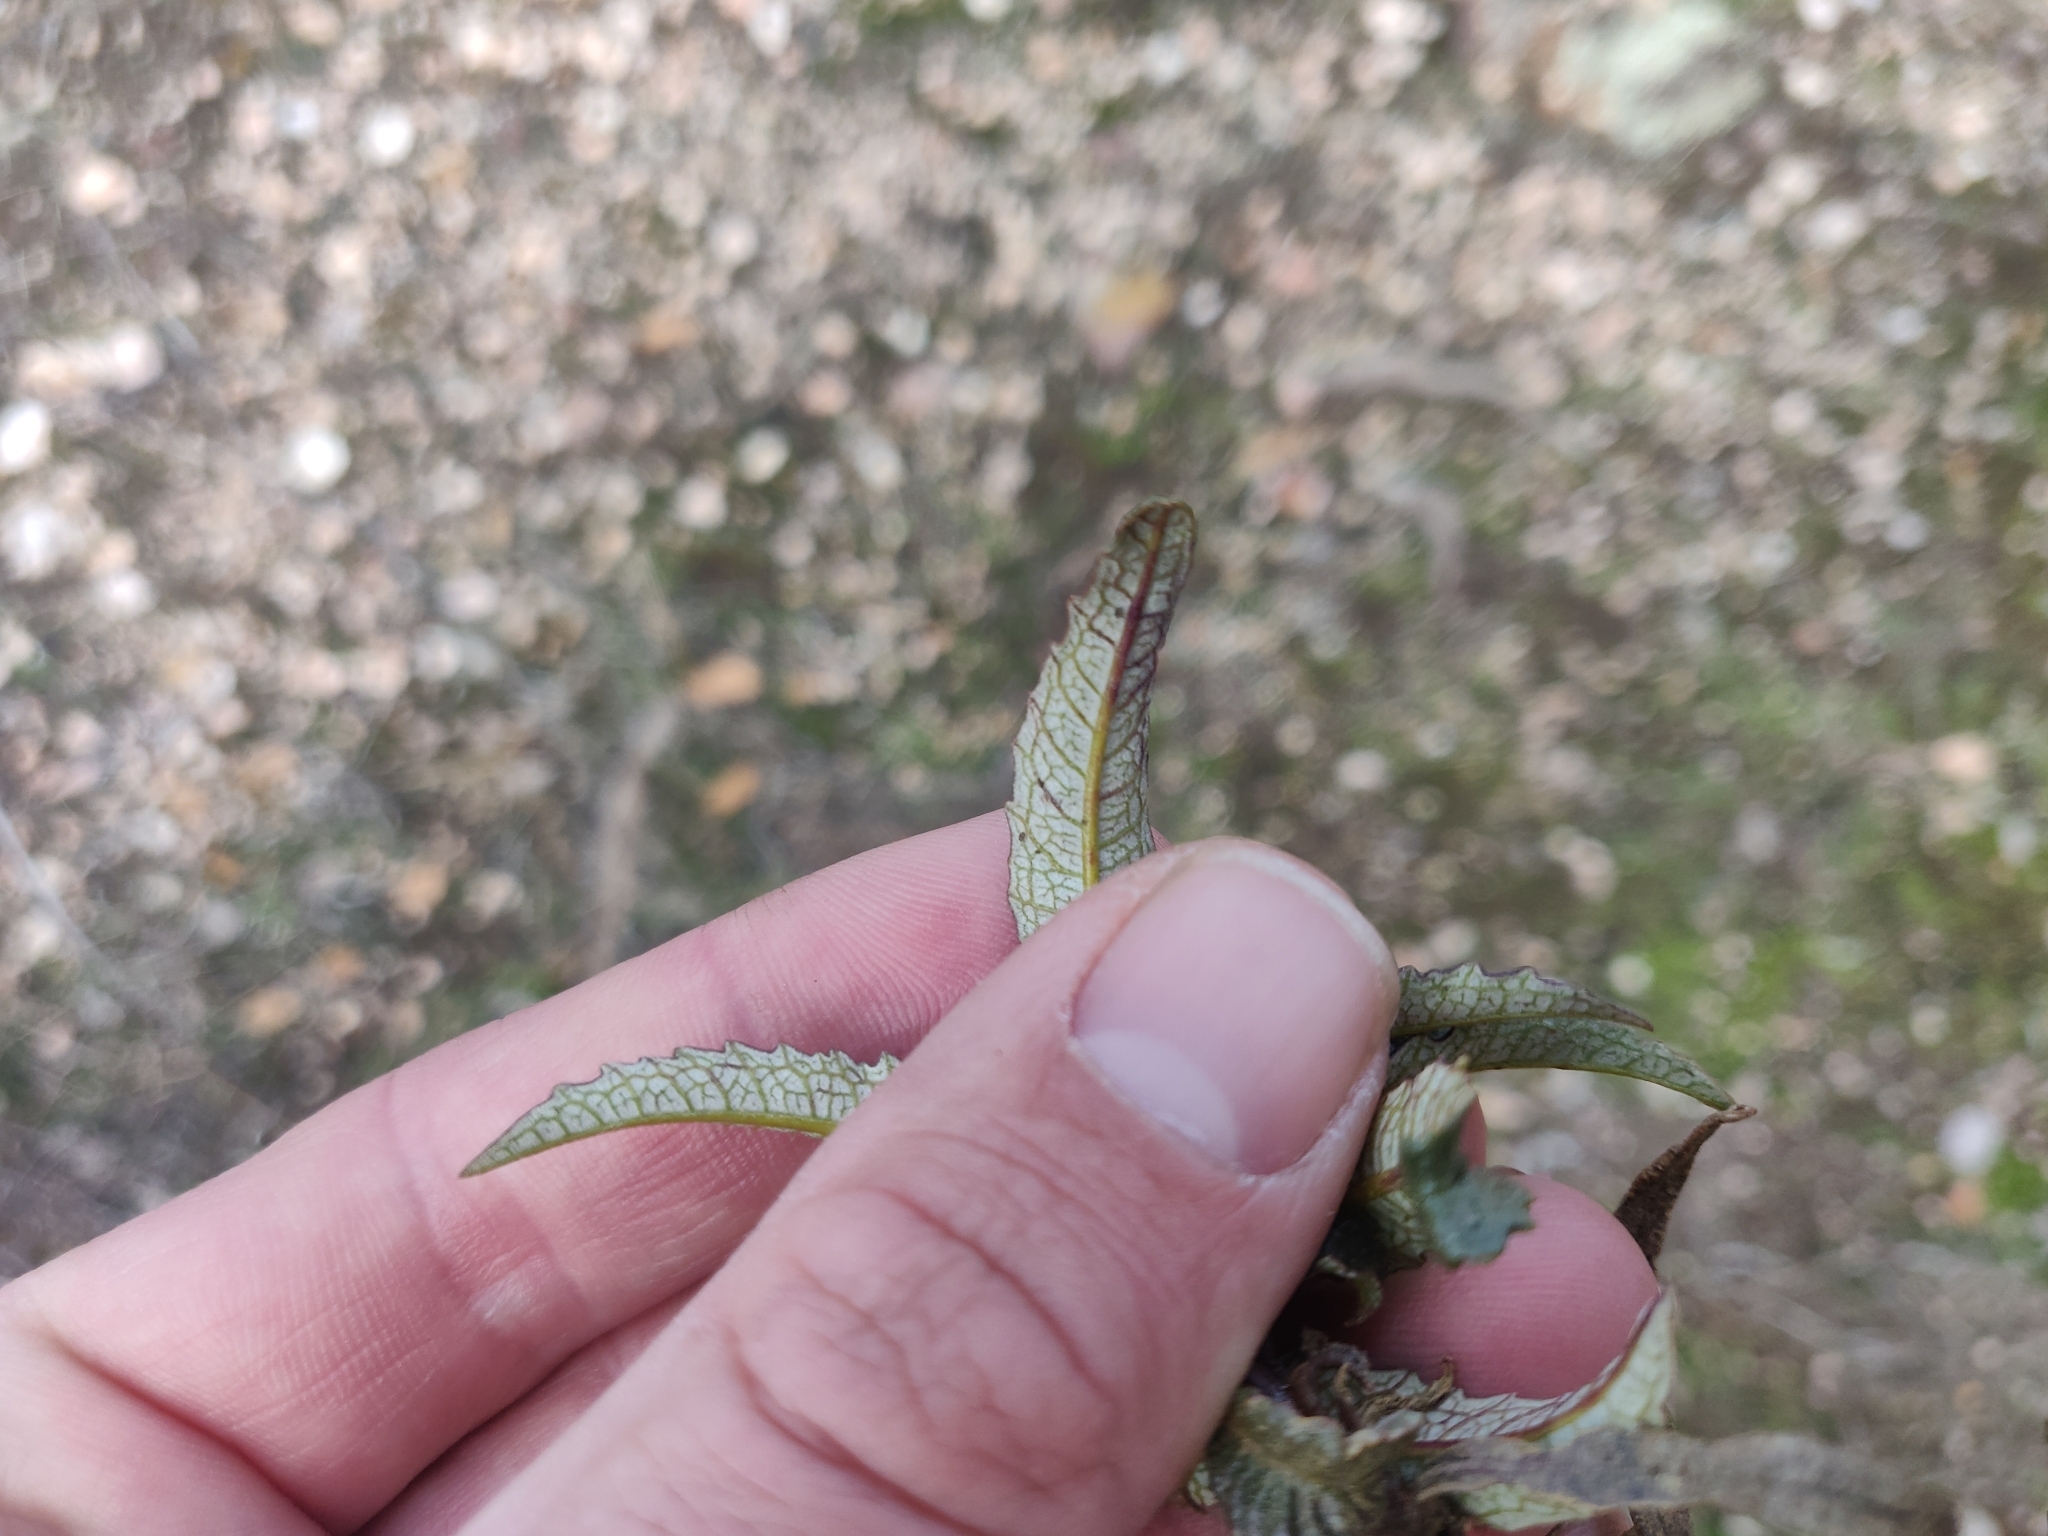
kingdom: Plantae
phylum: Tracheophyta
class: Magnoliopsida
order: Boraginales
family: Namaceae
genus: Eriodictyon
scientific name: Eriodictyon californicum
